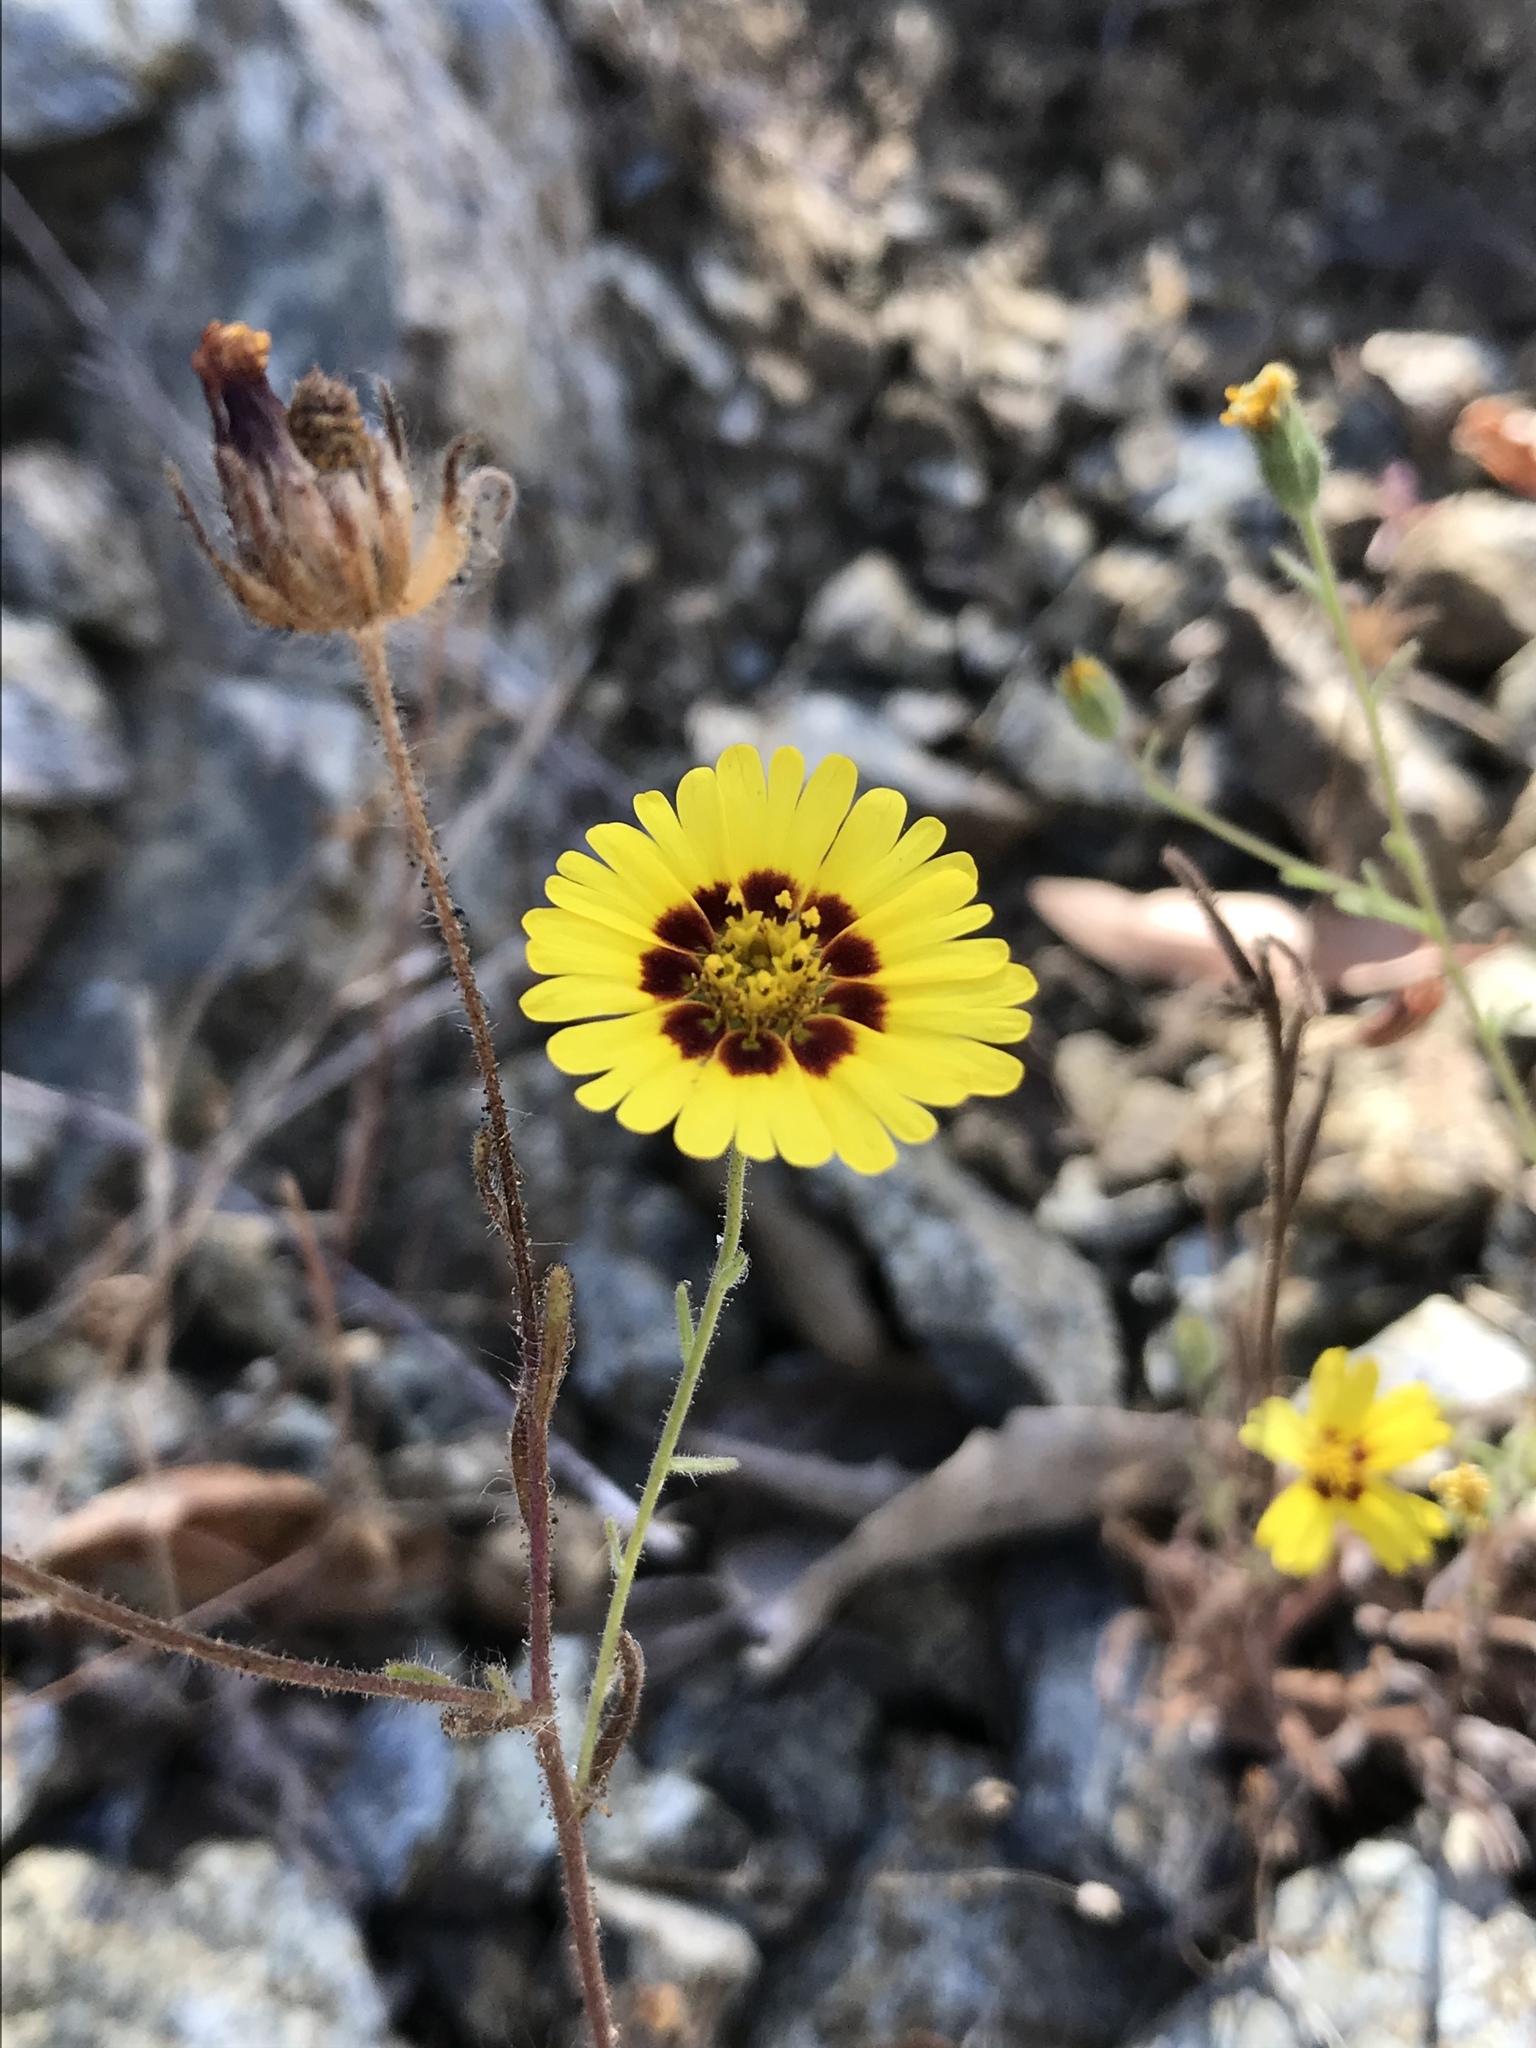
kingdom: Plantae
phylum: Tracheophyta
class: Magnoliopsida
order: Asterales
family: Asteraceae
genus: Madia
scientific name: Madia elegans
